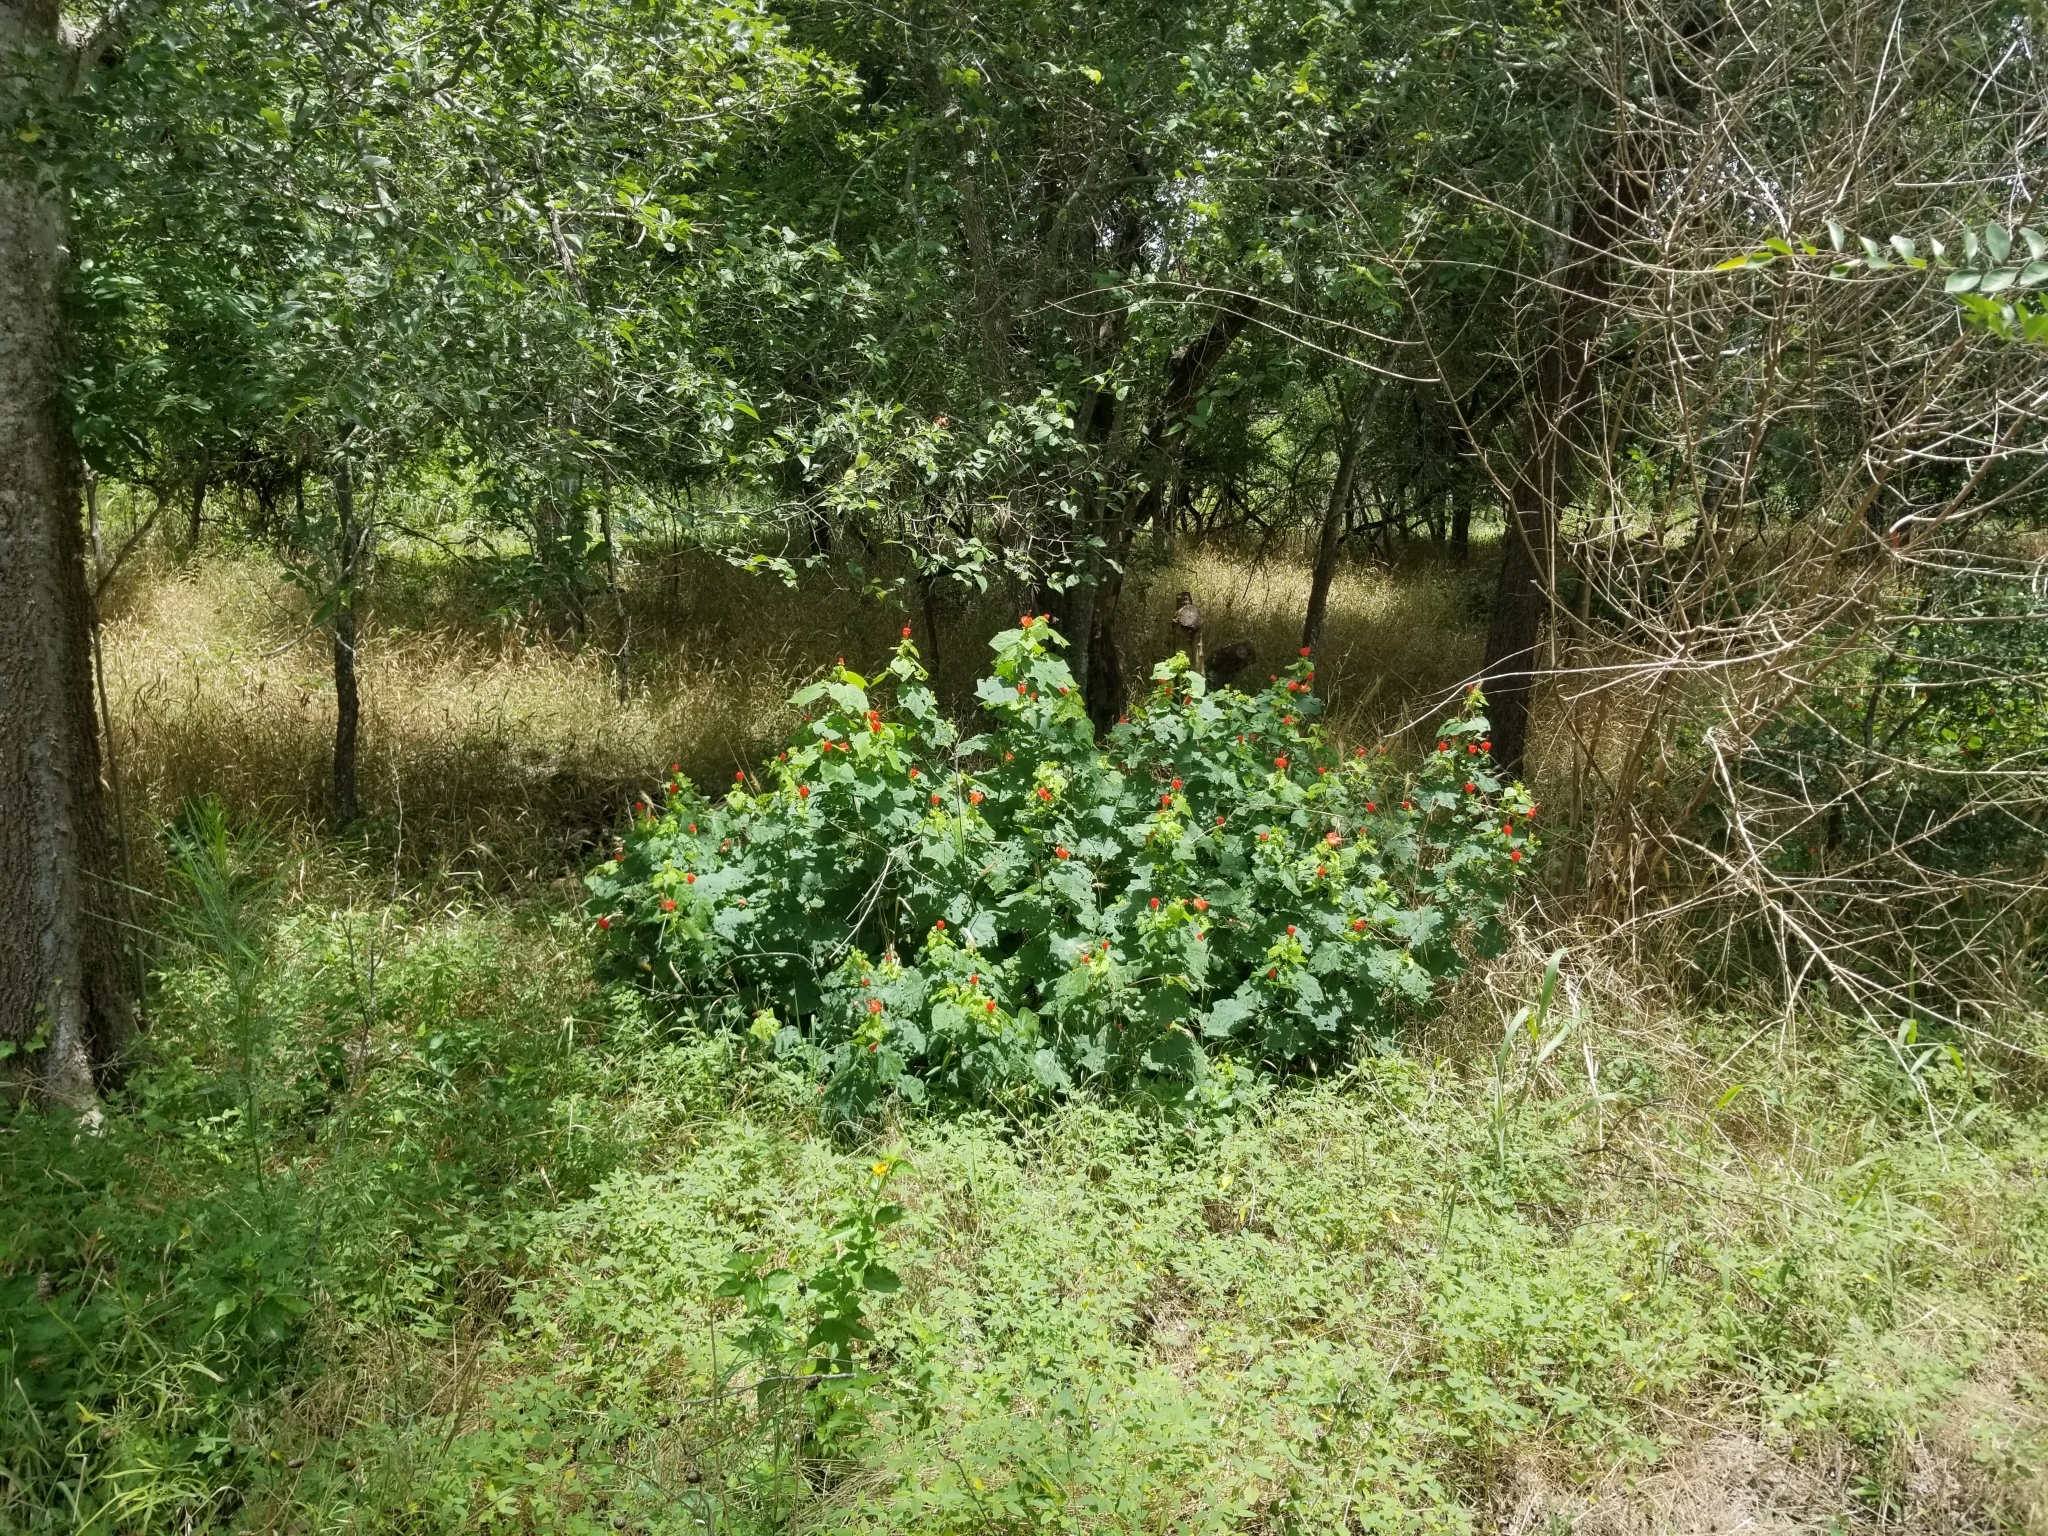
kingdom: Plantae
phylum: Tracheophyta
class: Magnoliopsida
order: Malvales
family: Malvaceae
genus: Malvaviscus
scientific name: Malvaviscus arboreus
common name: Wax mallow
